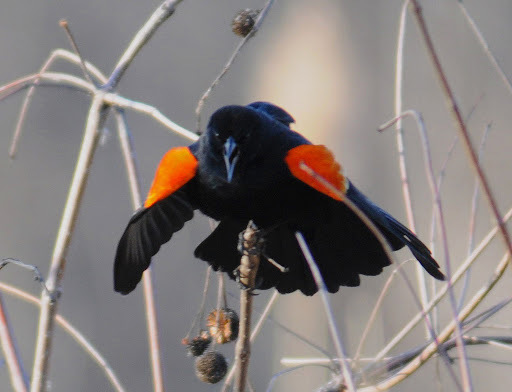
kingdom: Animalia
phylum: Chordata
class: Aves
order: Passeriformes
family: Icteridae
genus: Agelaius
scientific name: Agelaius phoeniceus
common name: Red-winged blackbird
